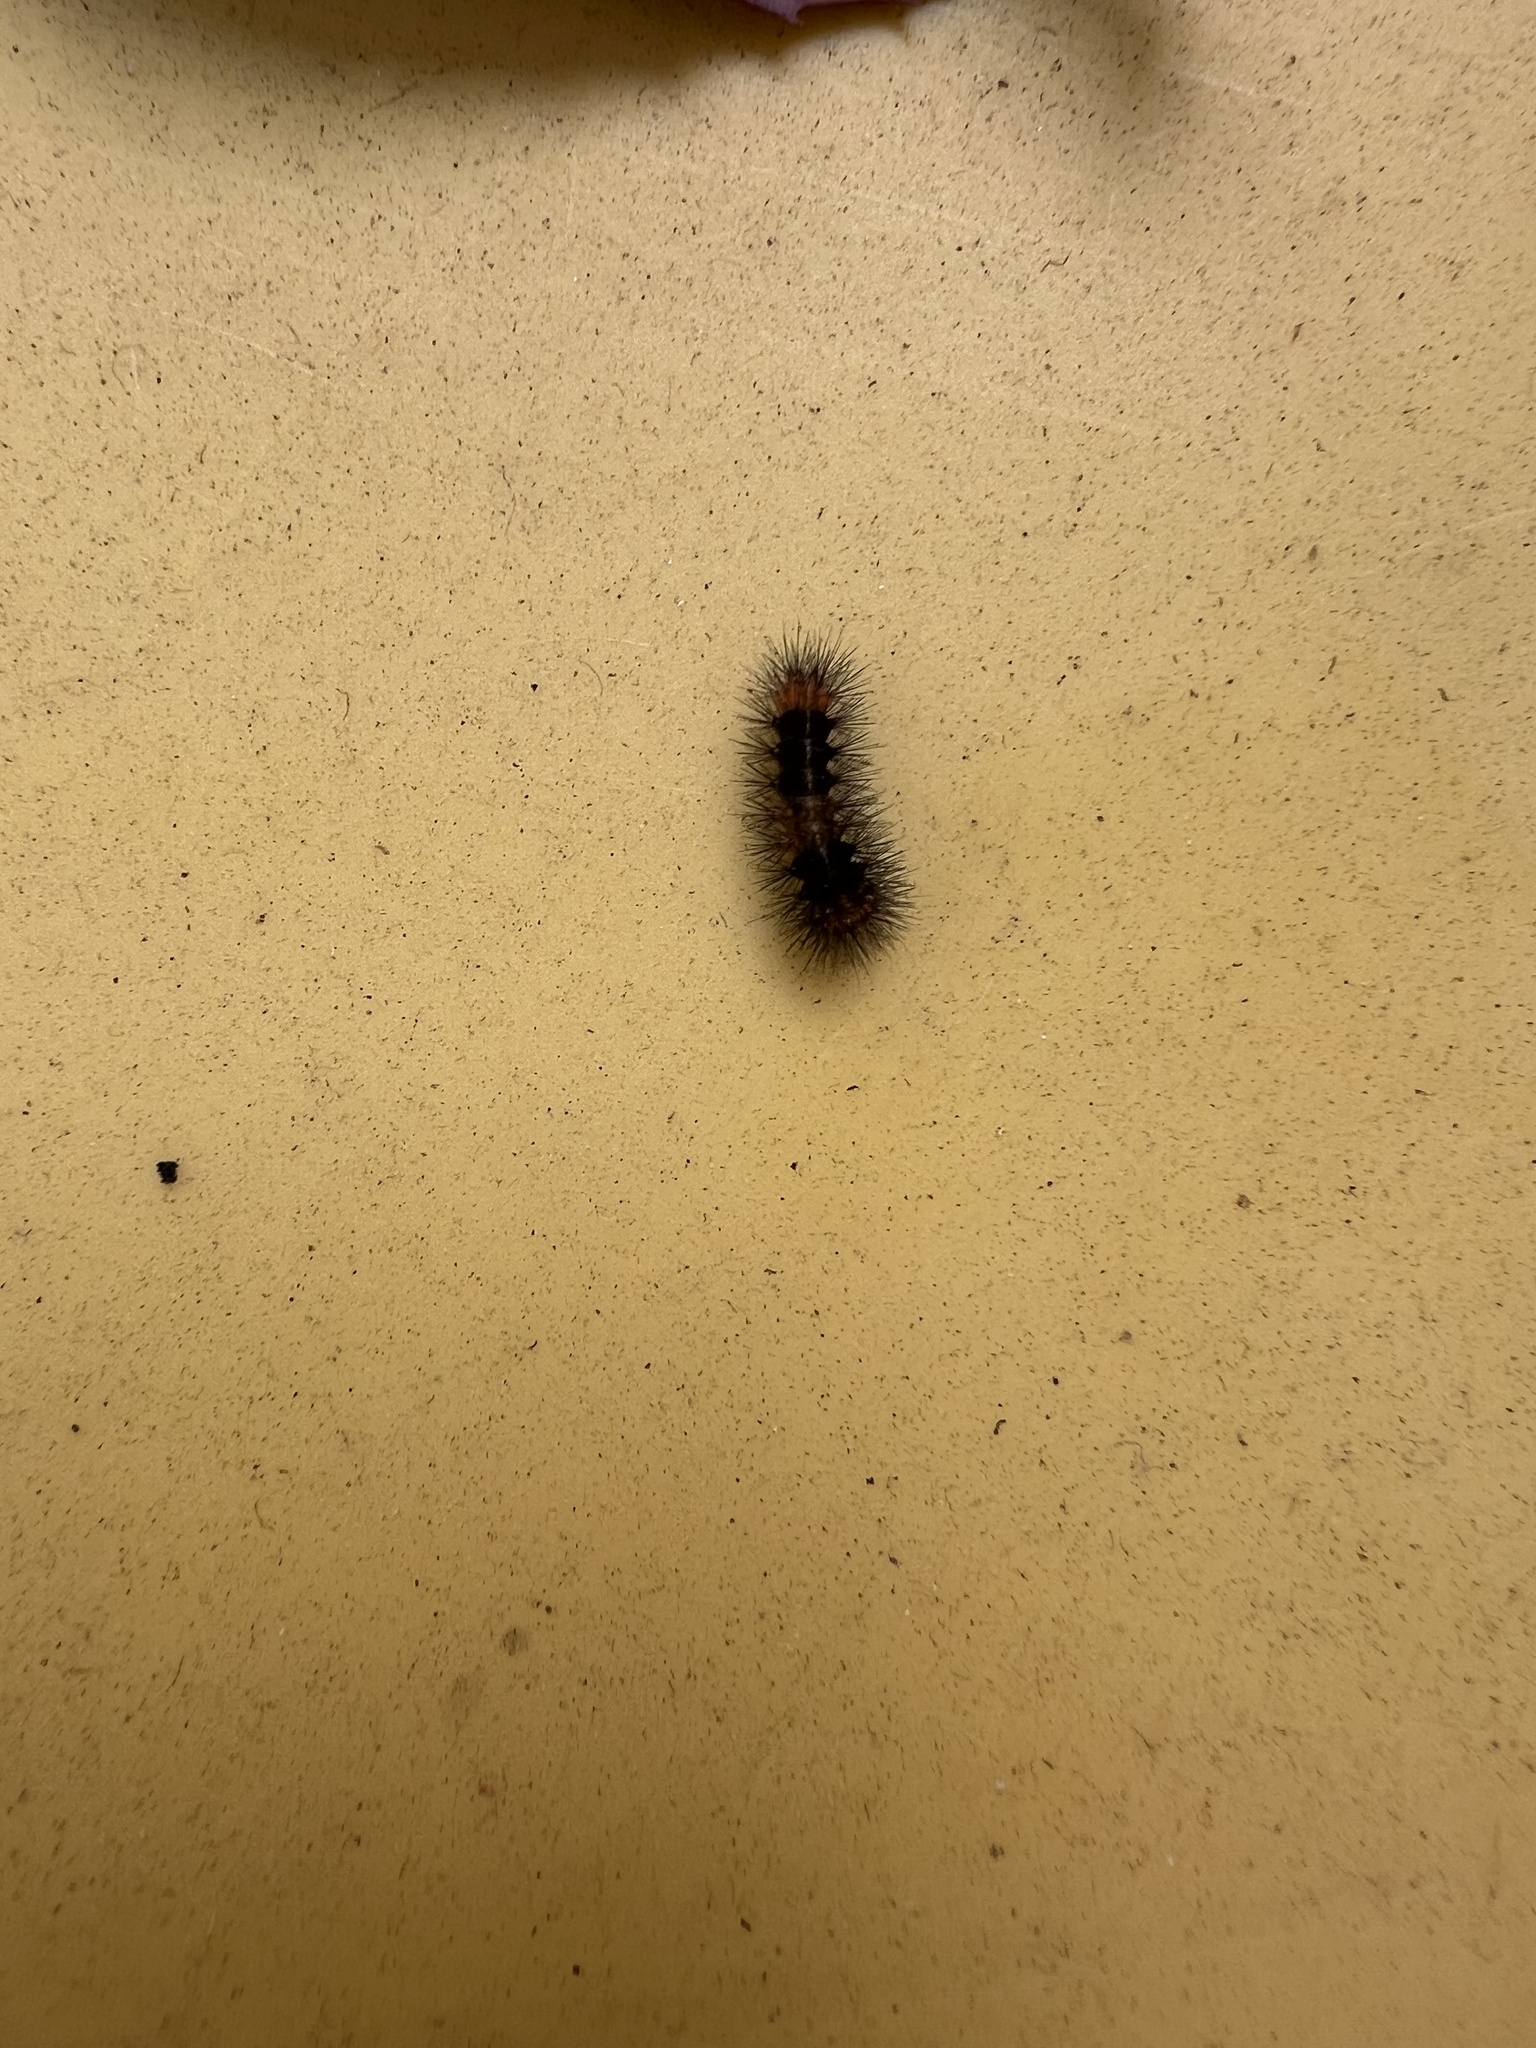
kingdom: Animalia
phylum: Arthropoda
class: Insecta
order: Lepidoptera
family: Erebidae
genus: Hypercompe
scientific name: Hypercompe scribonia
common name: Giant leopard moth
